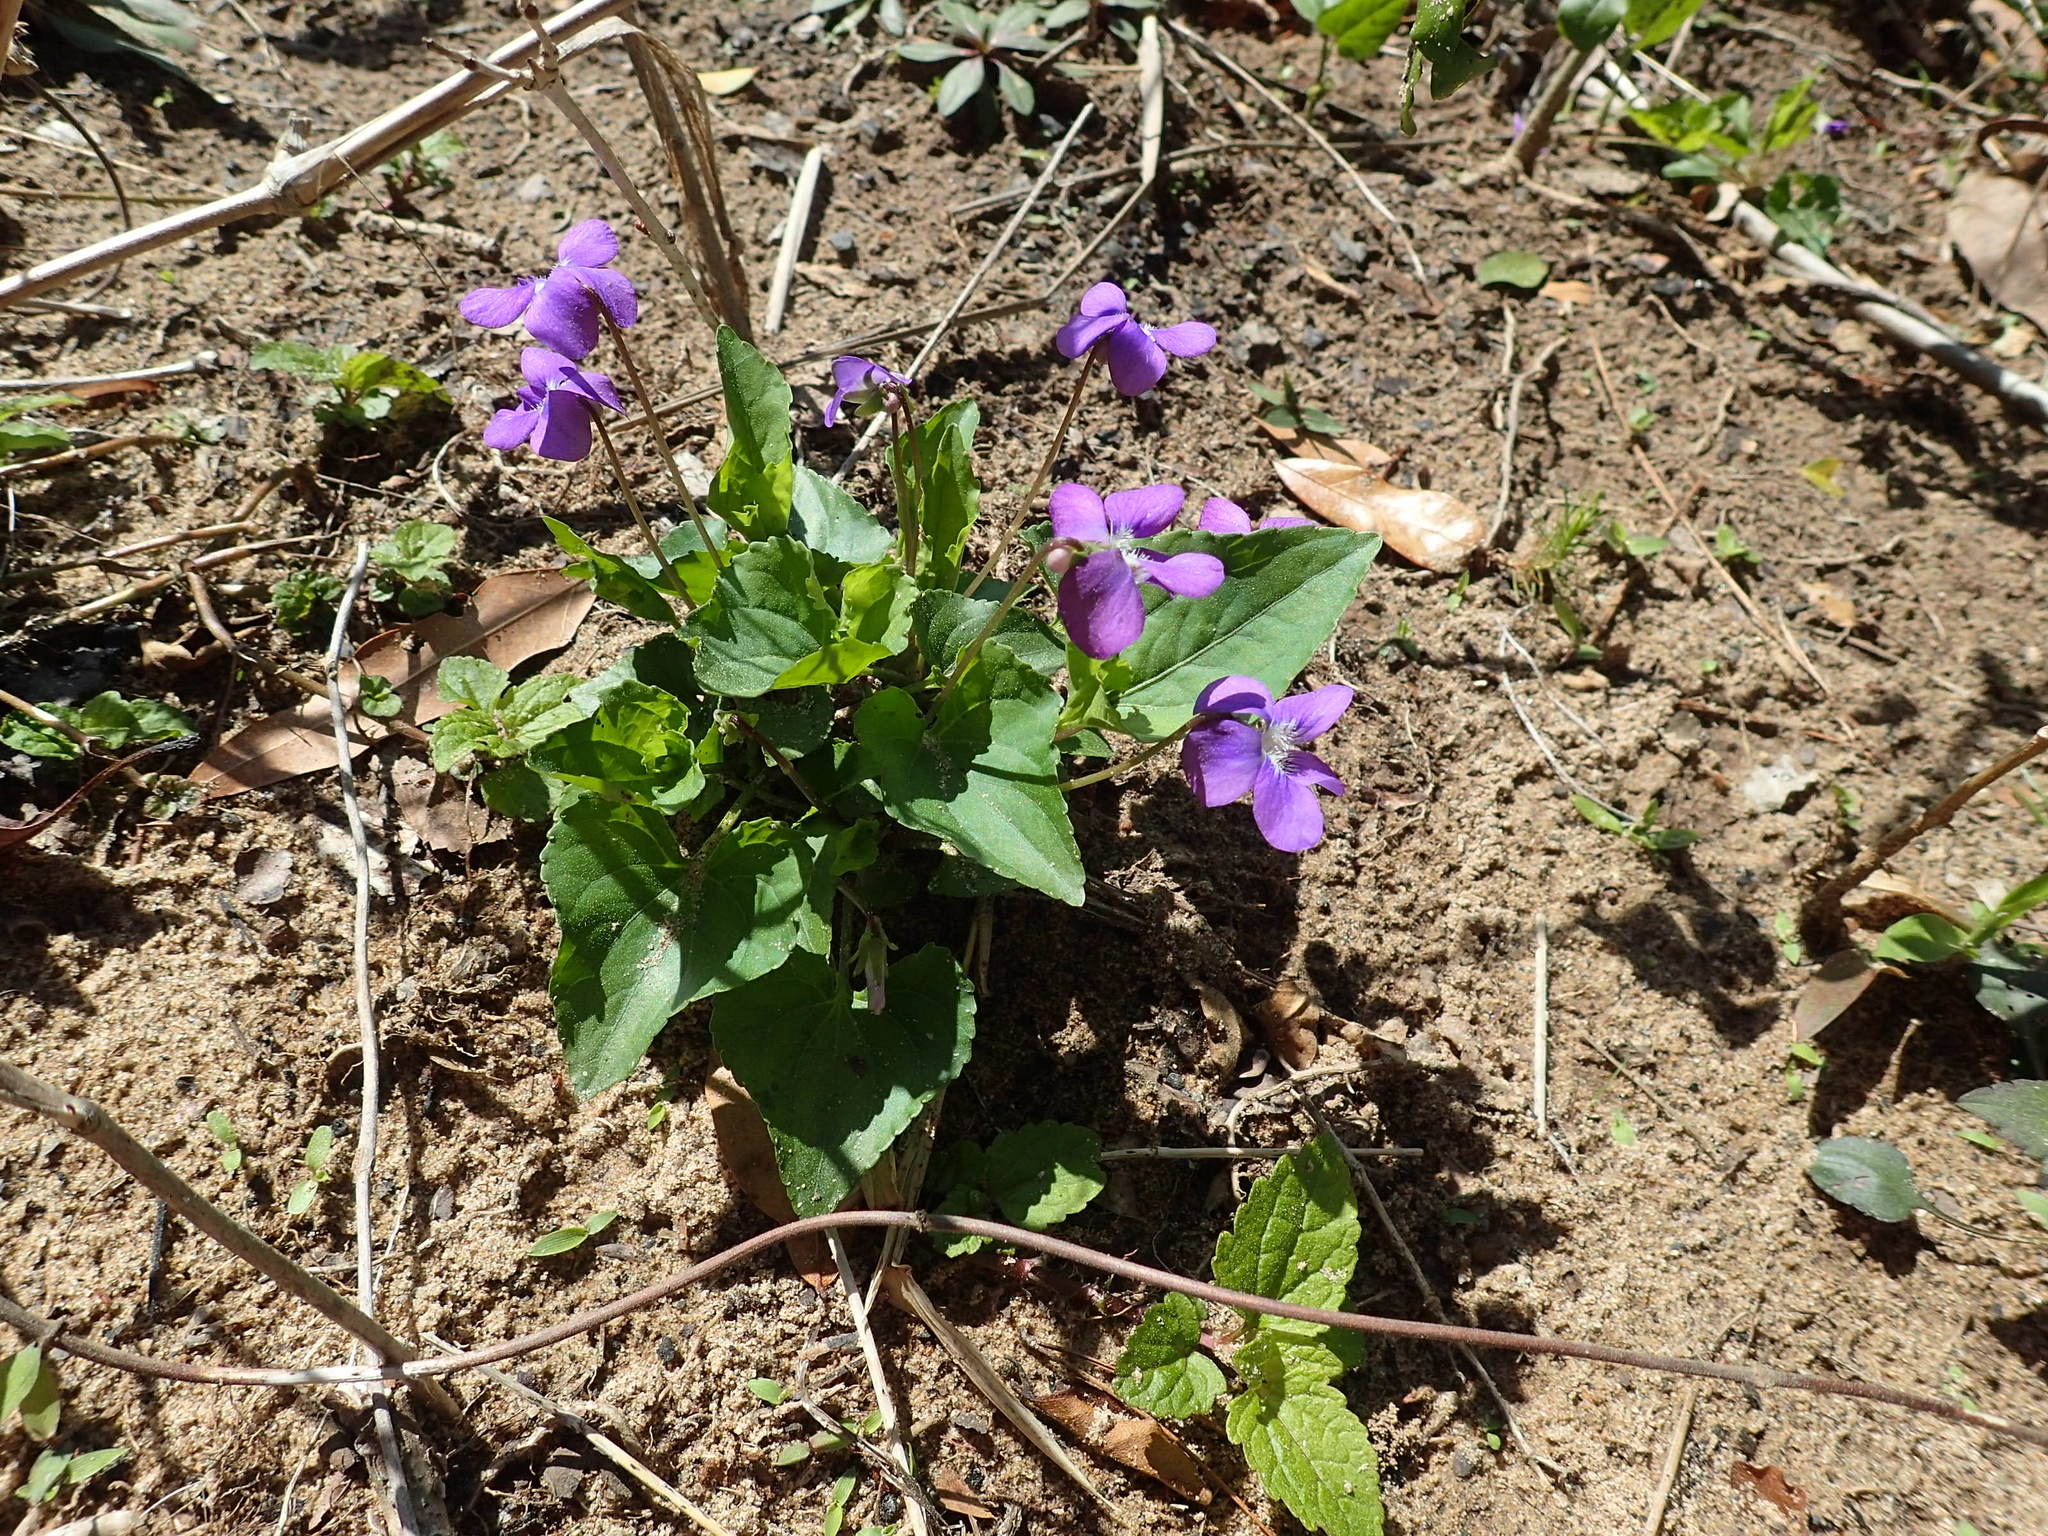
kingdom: Plantae
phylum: Tracheophyta
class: Magnoliopsida
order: Malpighiales
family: Violaceae
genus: Viola
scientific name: Viola sororia
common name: Dooryard violet
